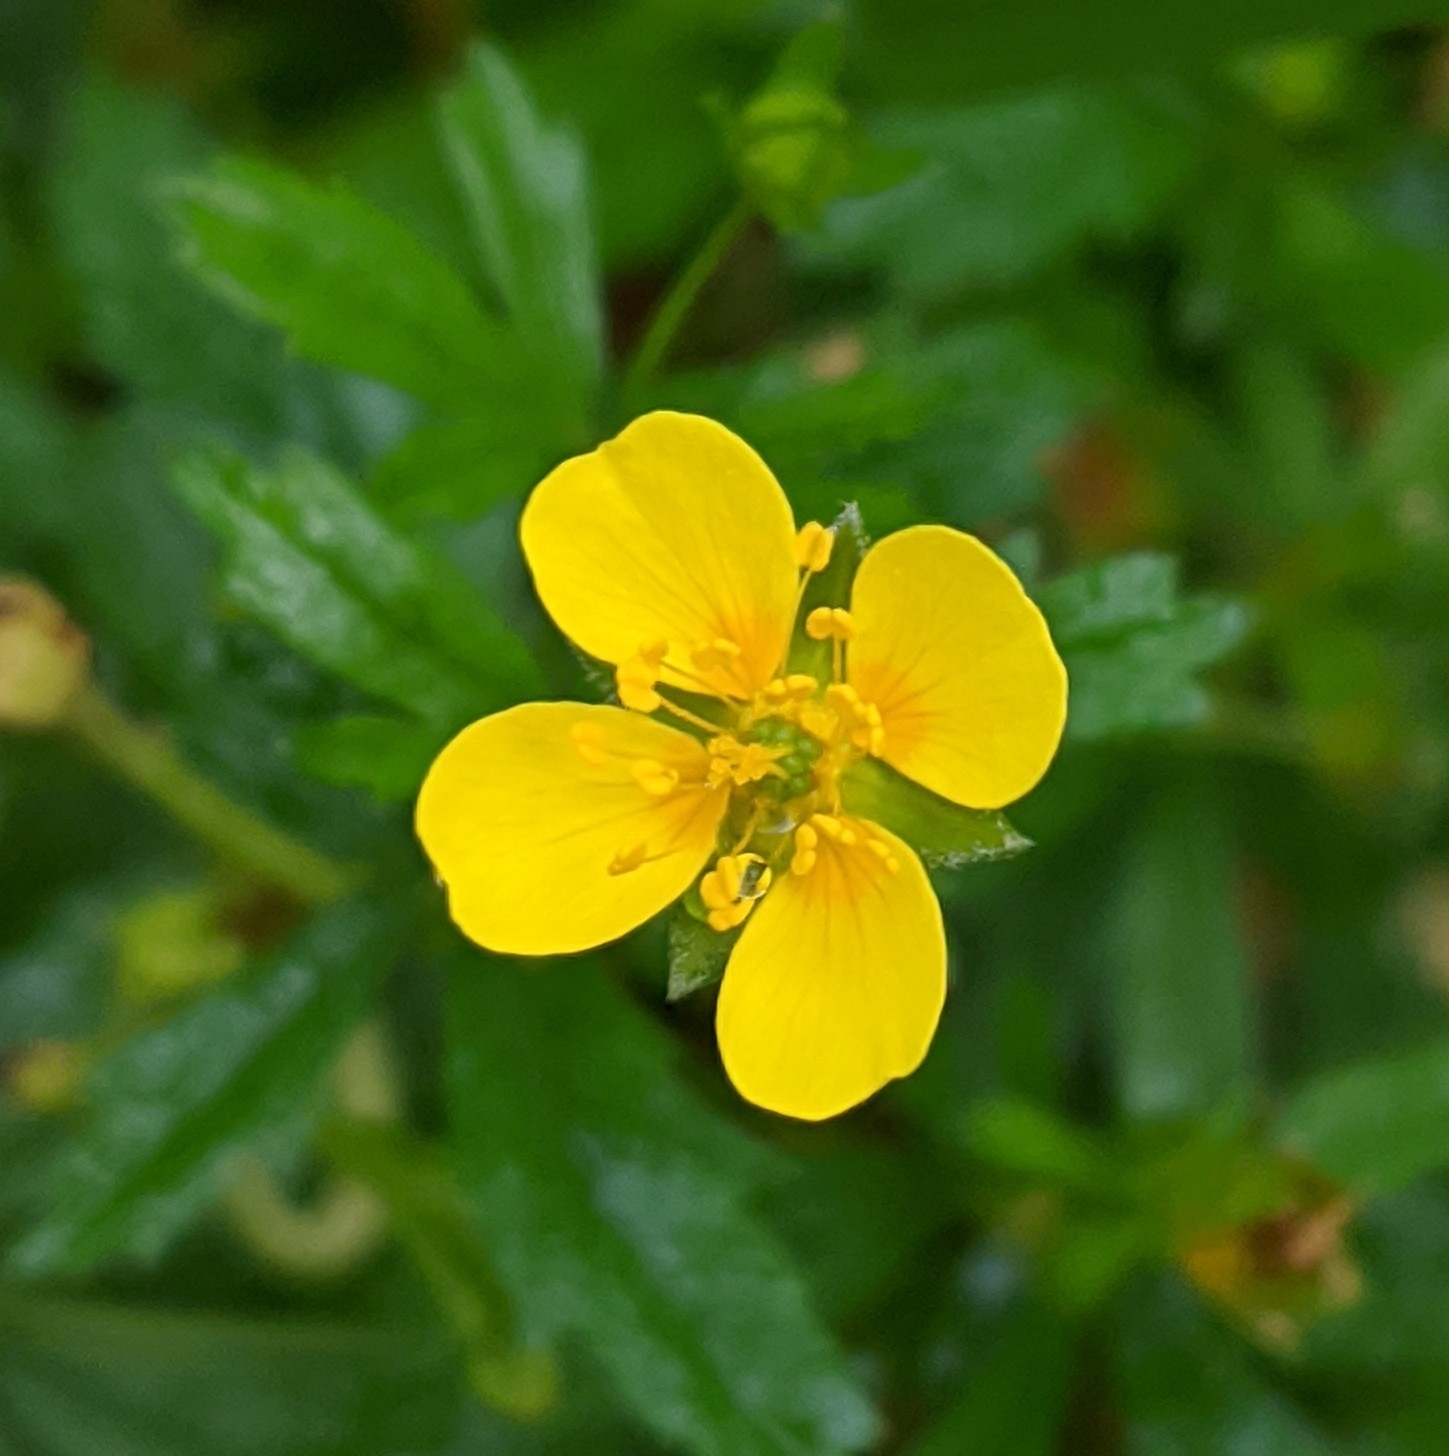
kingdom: Plantae
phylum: Tracheophyta
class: Magnoliopsida
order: Rosales
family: Rosaceae
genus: Potentilla
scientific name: Potentilla erecta
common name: Tormentil
